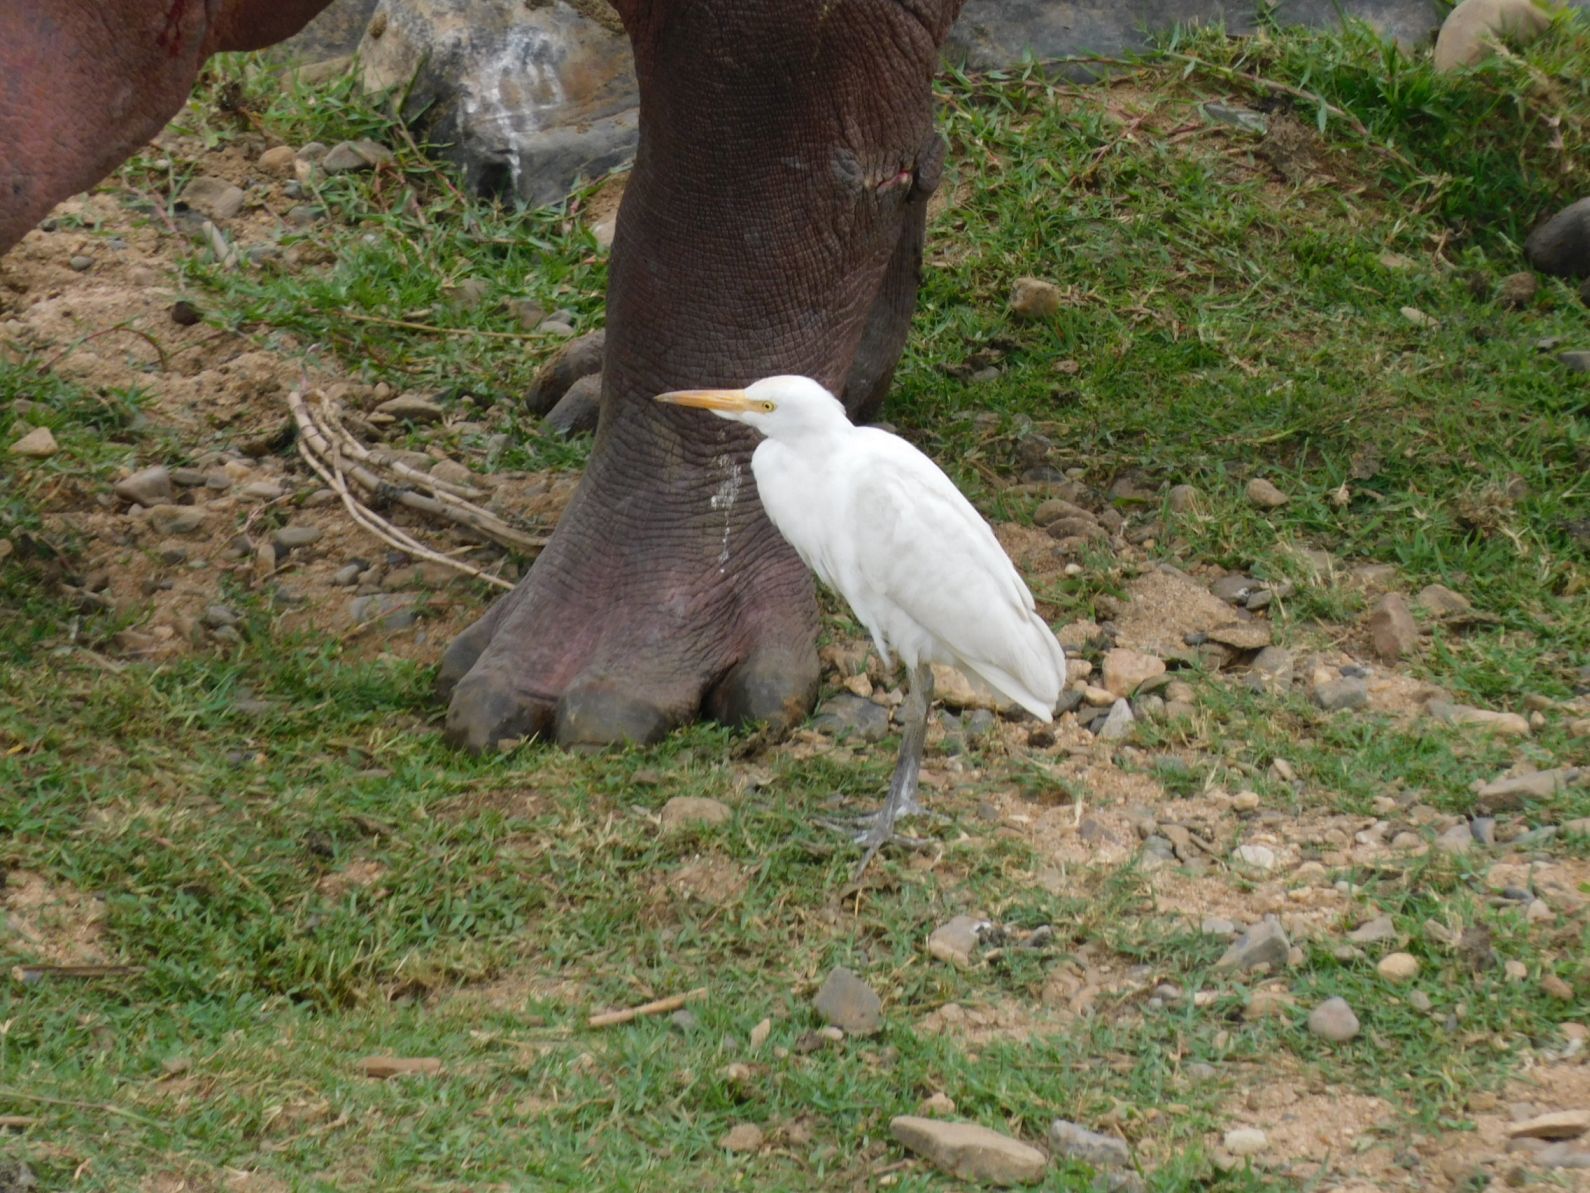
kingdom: Animalia
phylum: Chordata
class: Aves
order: Pelecaniformes
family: Ardeidae
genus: Bubulcus
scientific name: Bubulcus ibis
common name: Cattle egret
